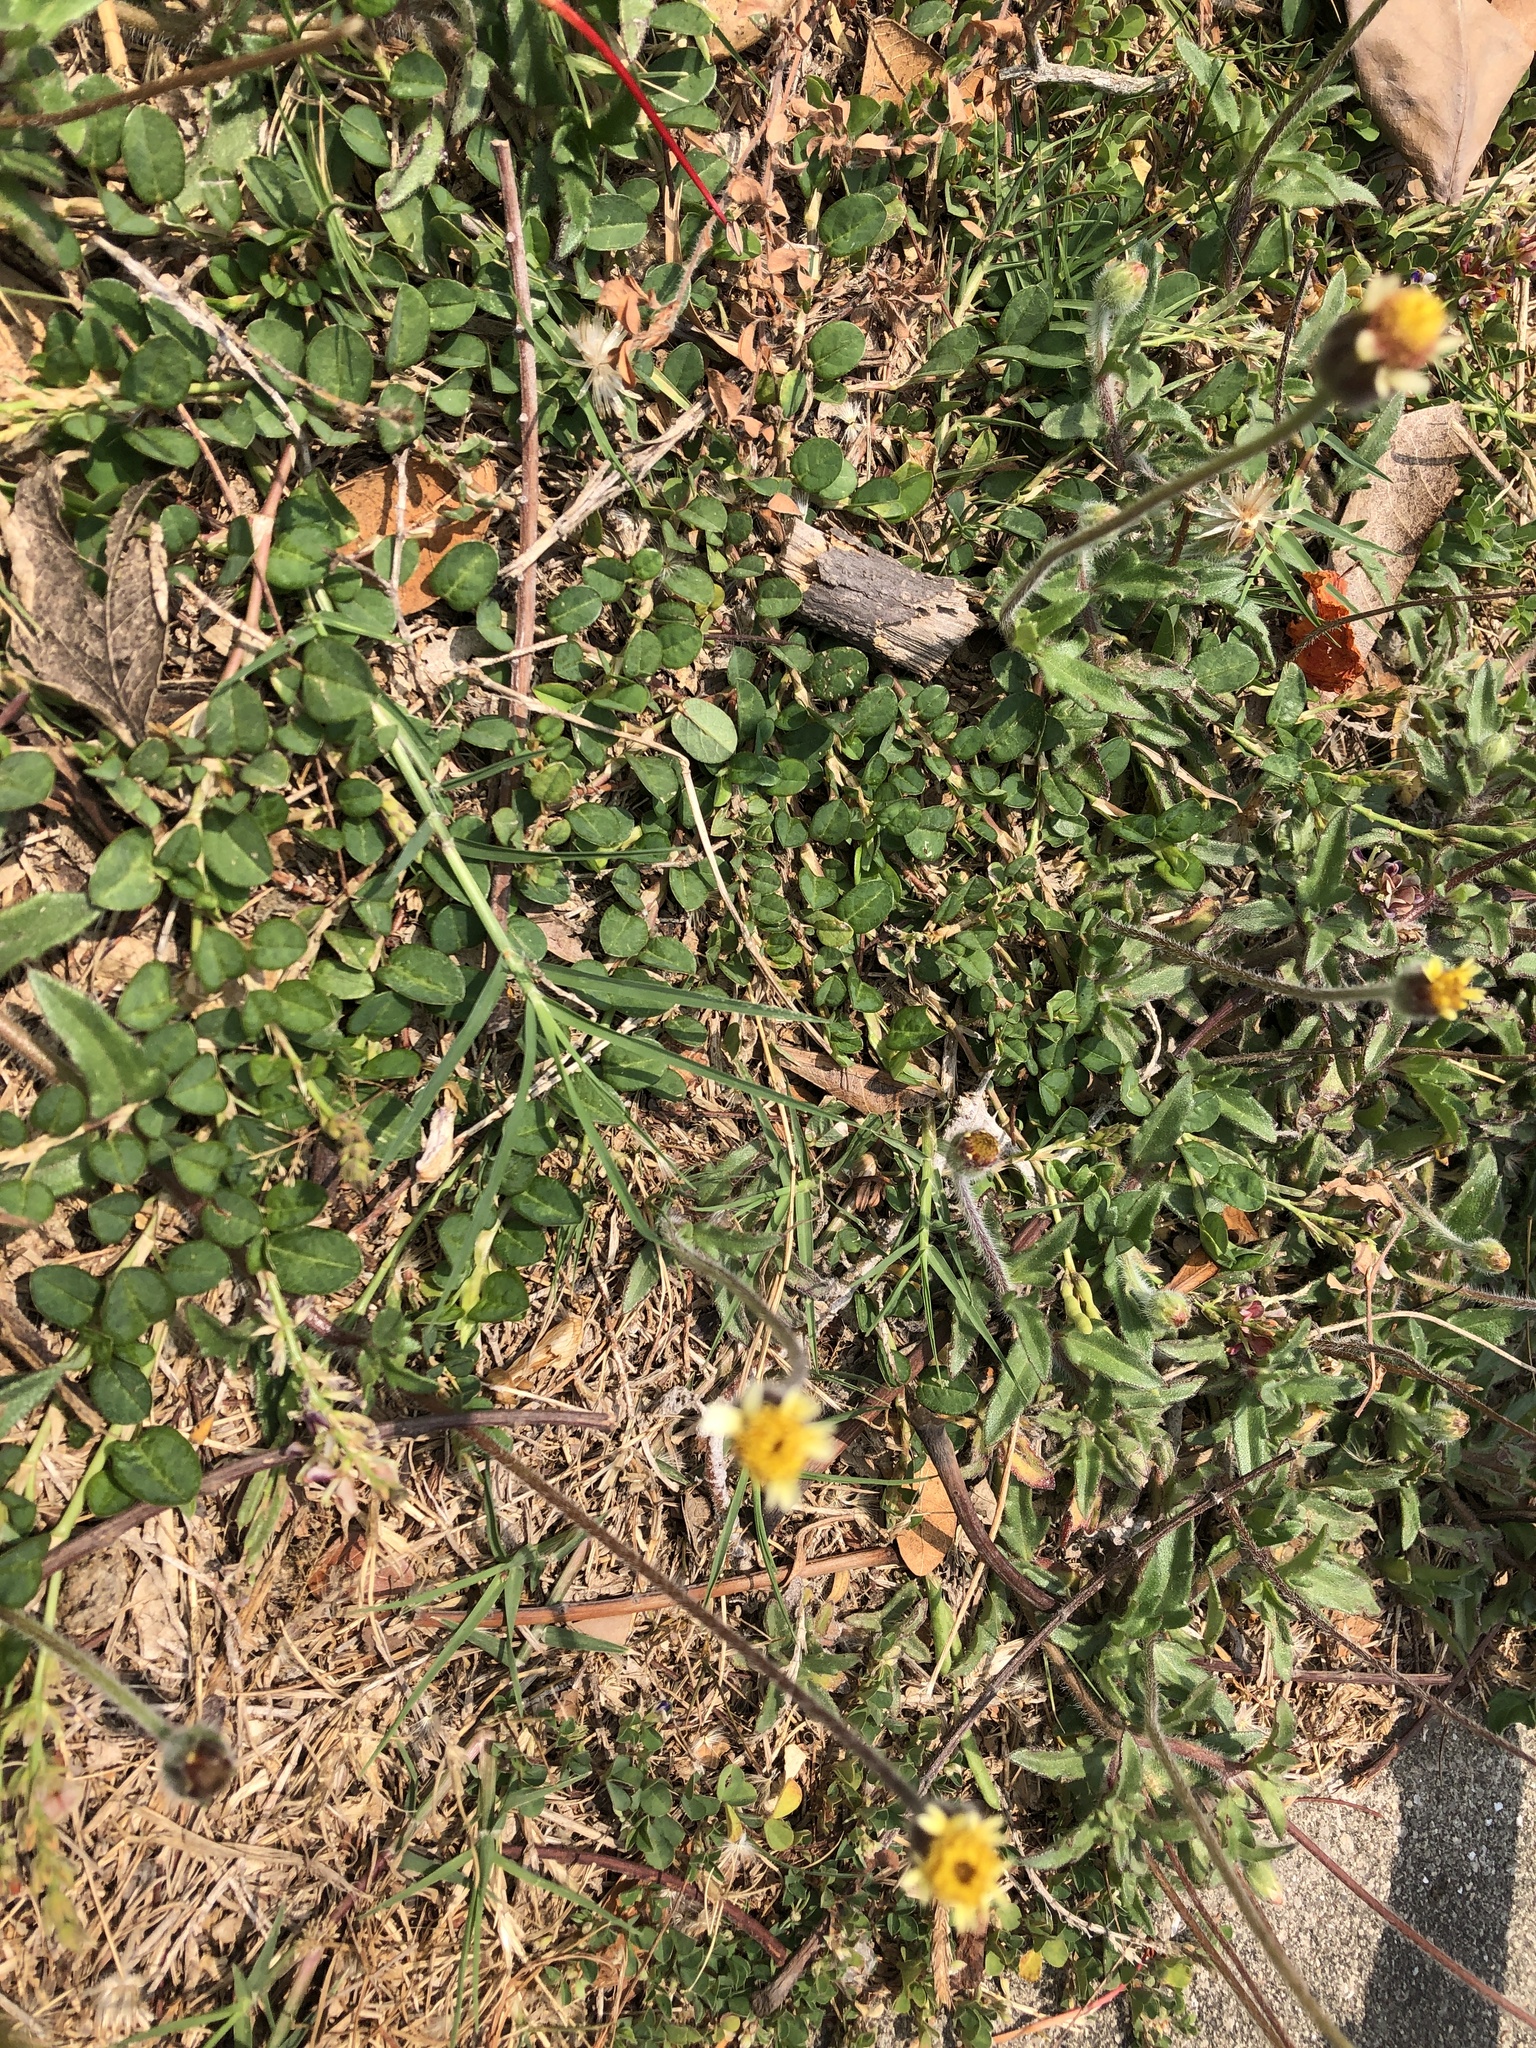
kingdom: Plantae
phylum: Tracheophyta
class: Magnoliopsida
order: Asterales
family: Asteraceae
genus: Tridax
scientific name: Tridax procumbens
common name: Coatbuttons
